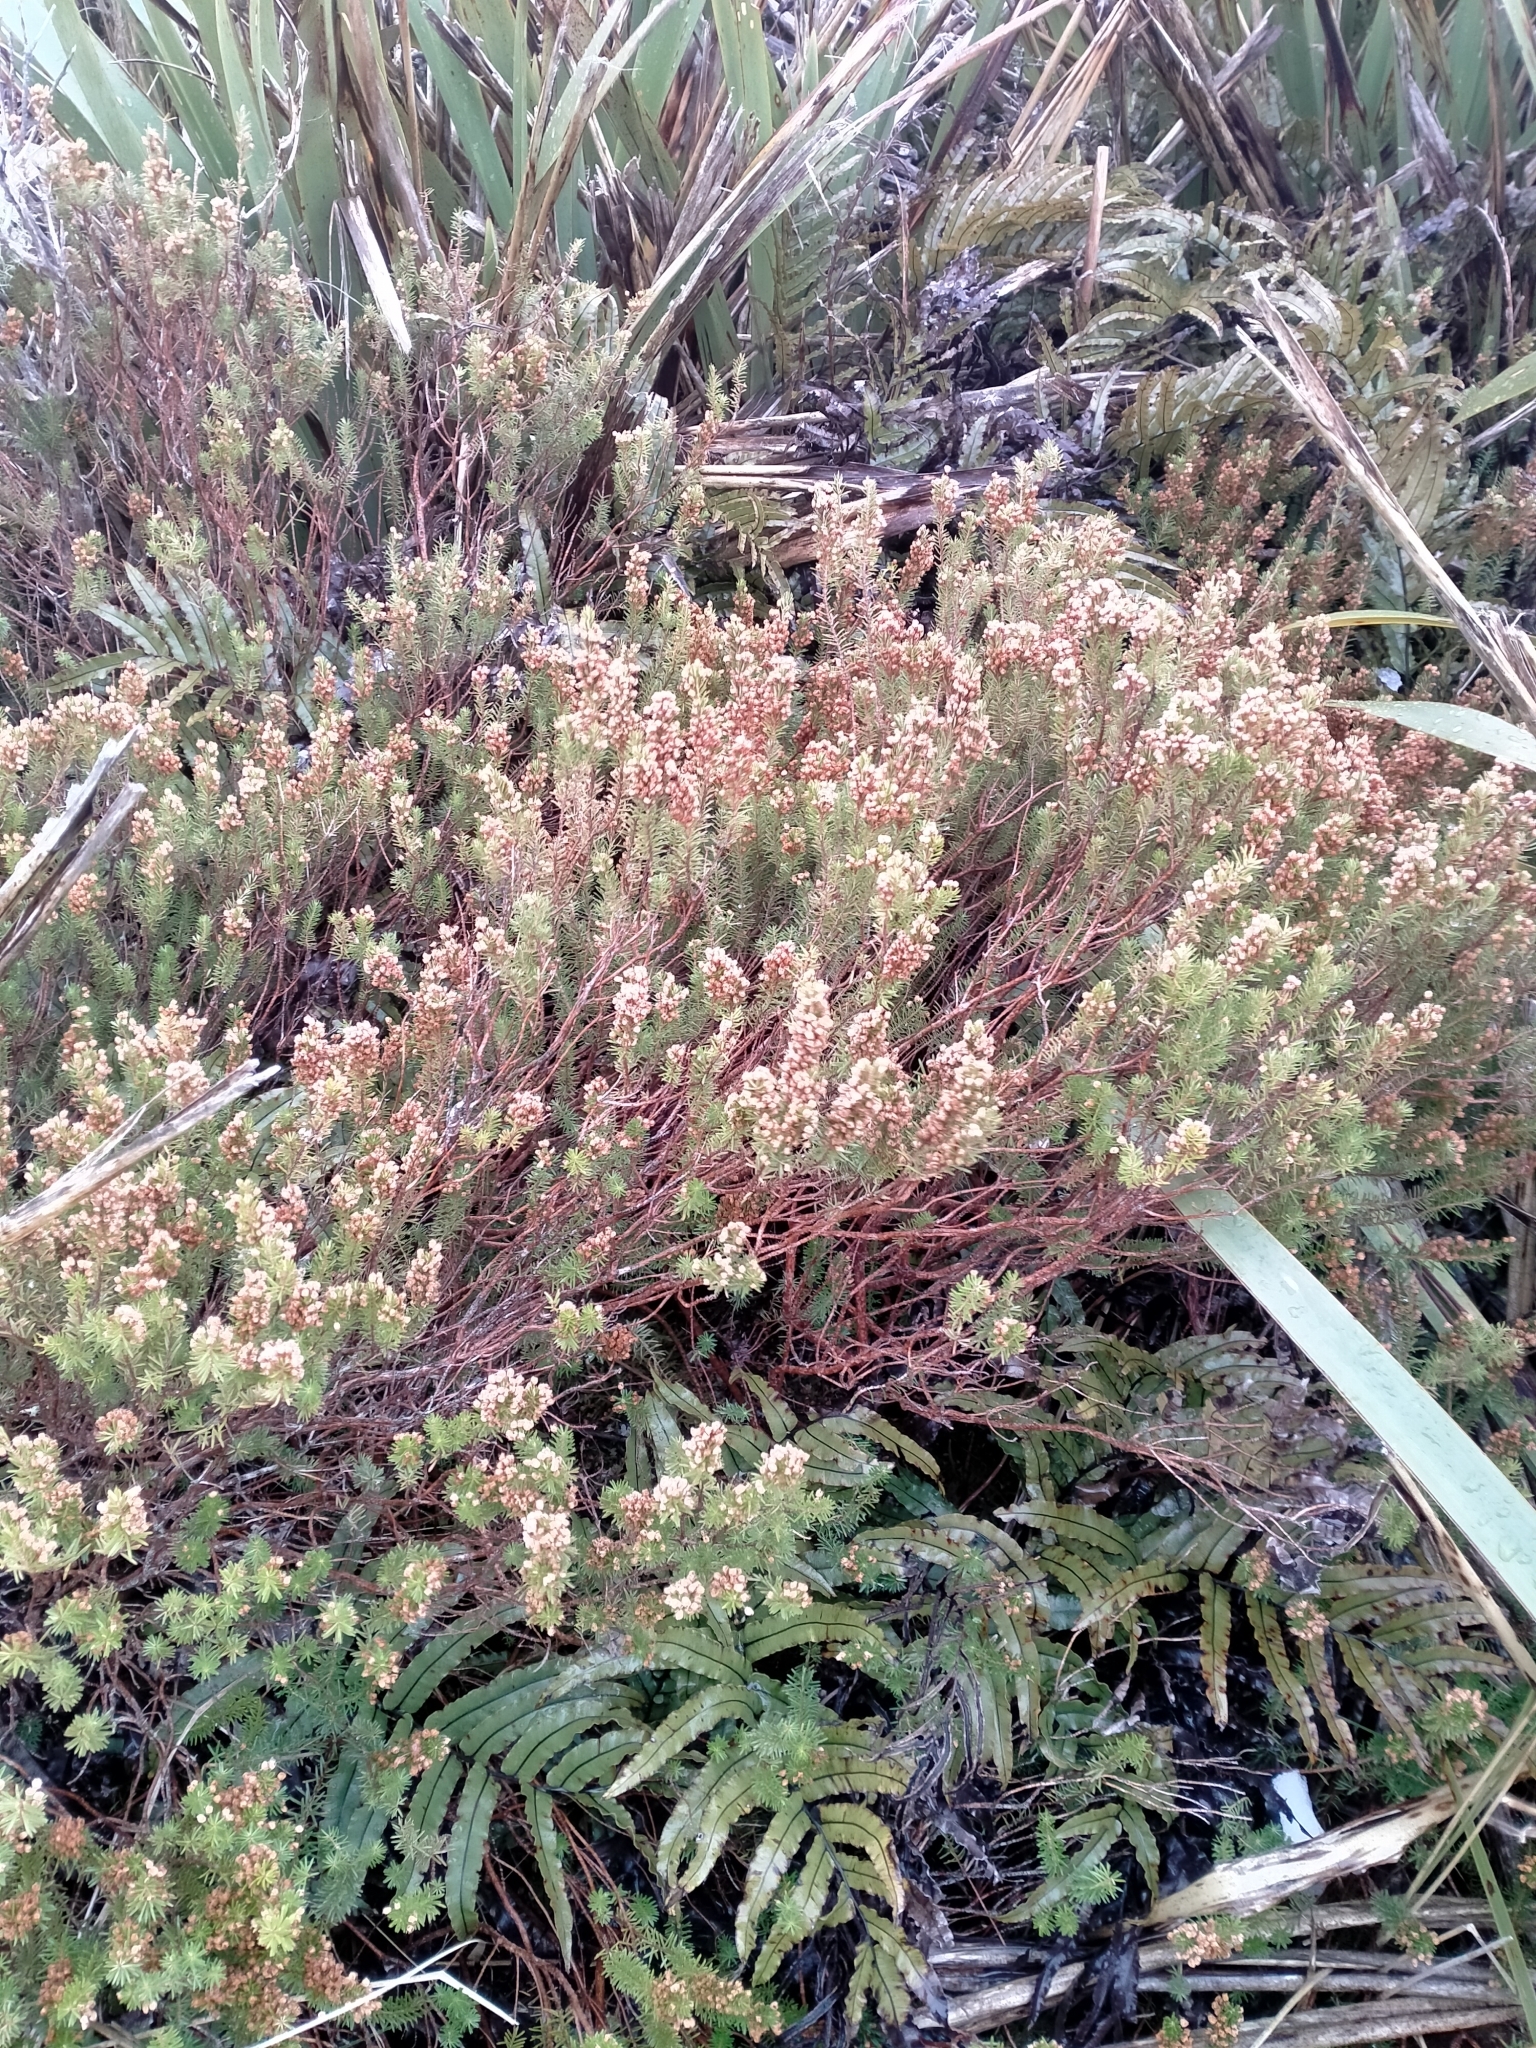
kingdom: Plantae
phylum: Tracheophyta
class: Magnoliopsida
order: Ericales
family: Ericaceae
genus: Erica
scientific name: Erica vagans
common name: Cornish heath
